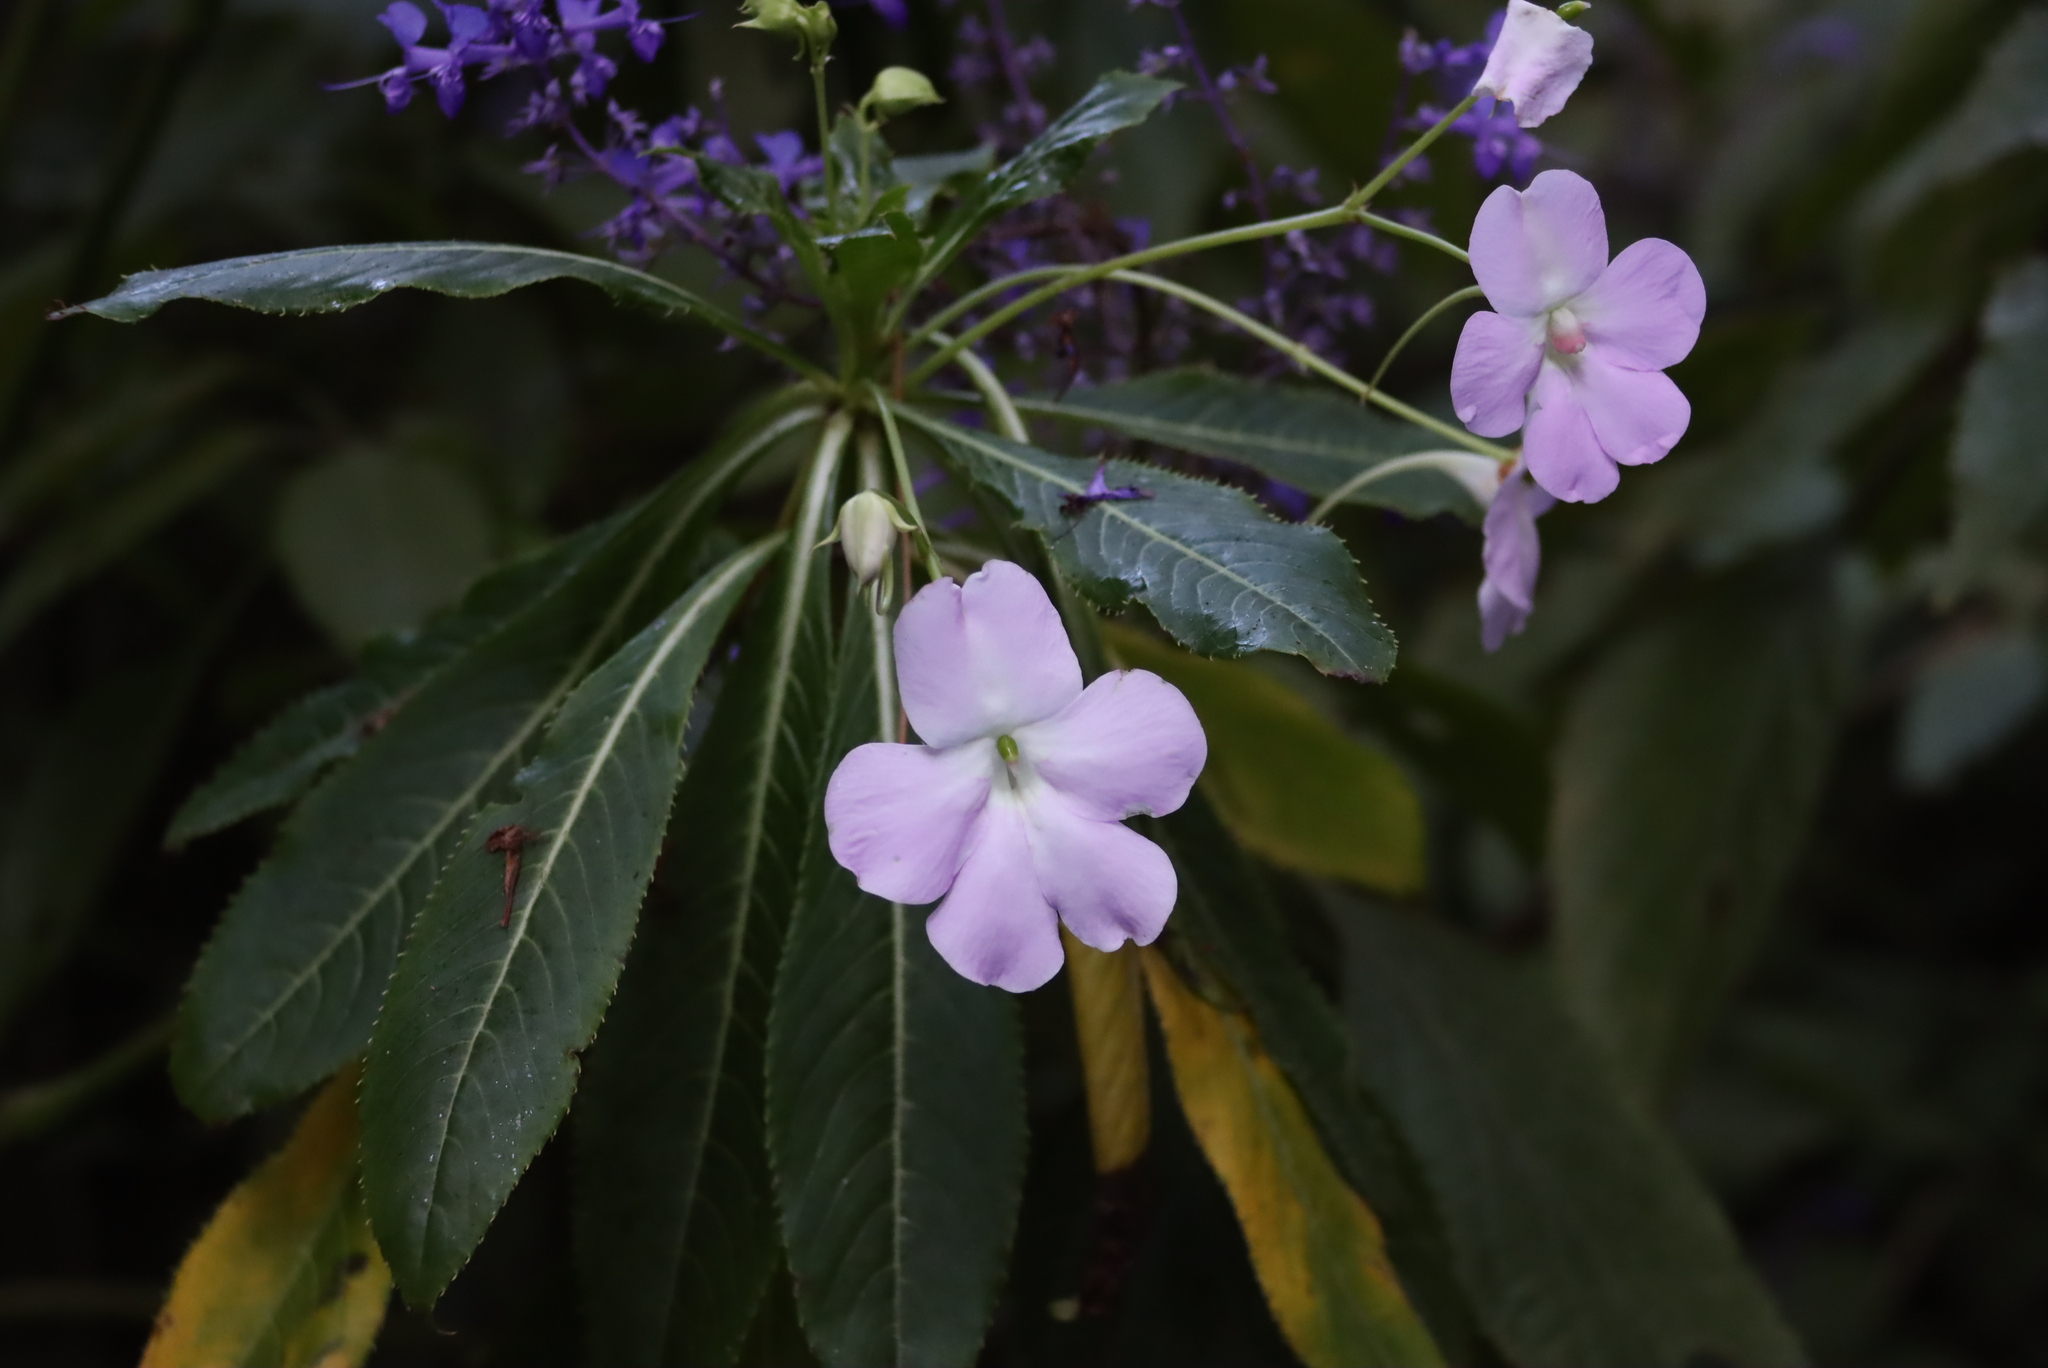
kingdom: Plantae
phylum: Tracheophyta
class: Magnoliopsida
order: Ericales
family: Balsaminaceae
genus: Impatiens
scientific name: Impatiens sodenii
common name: Oliver's touch-me-not
